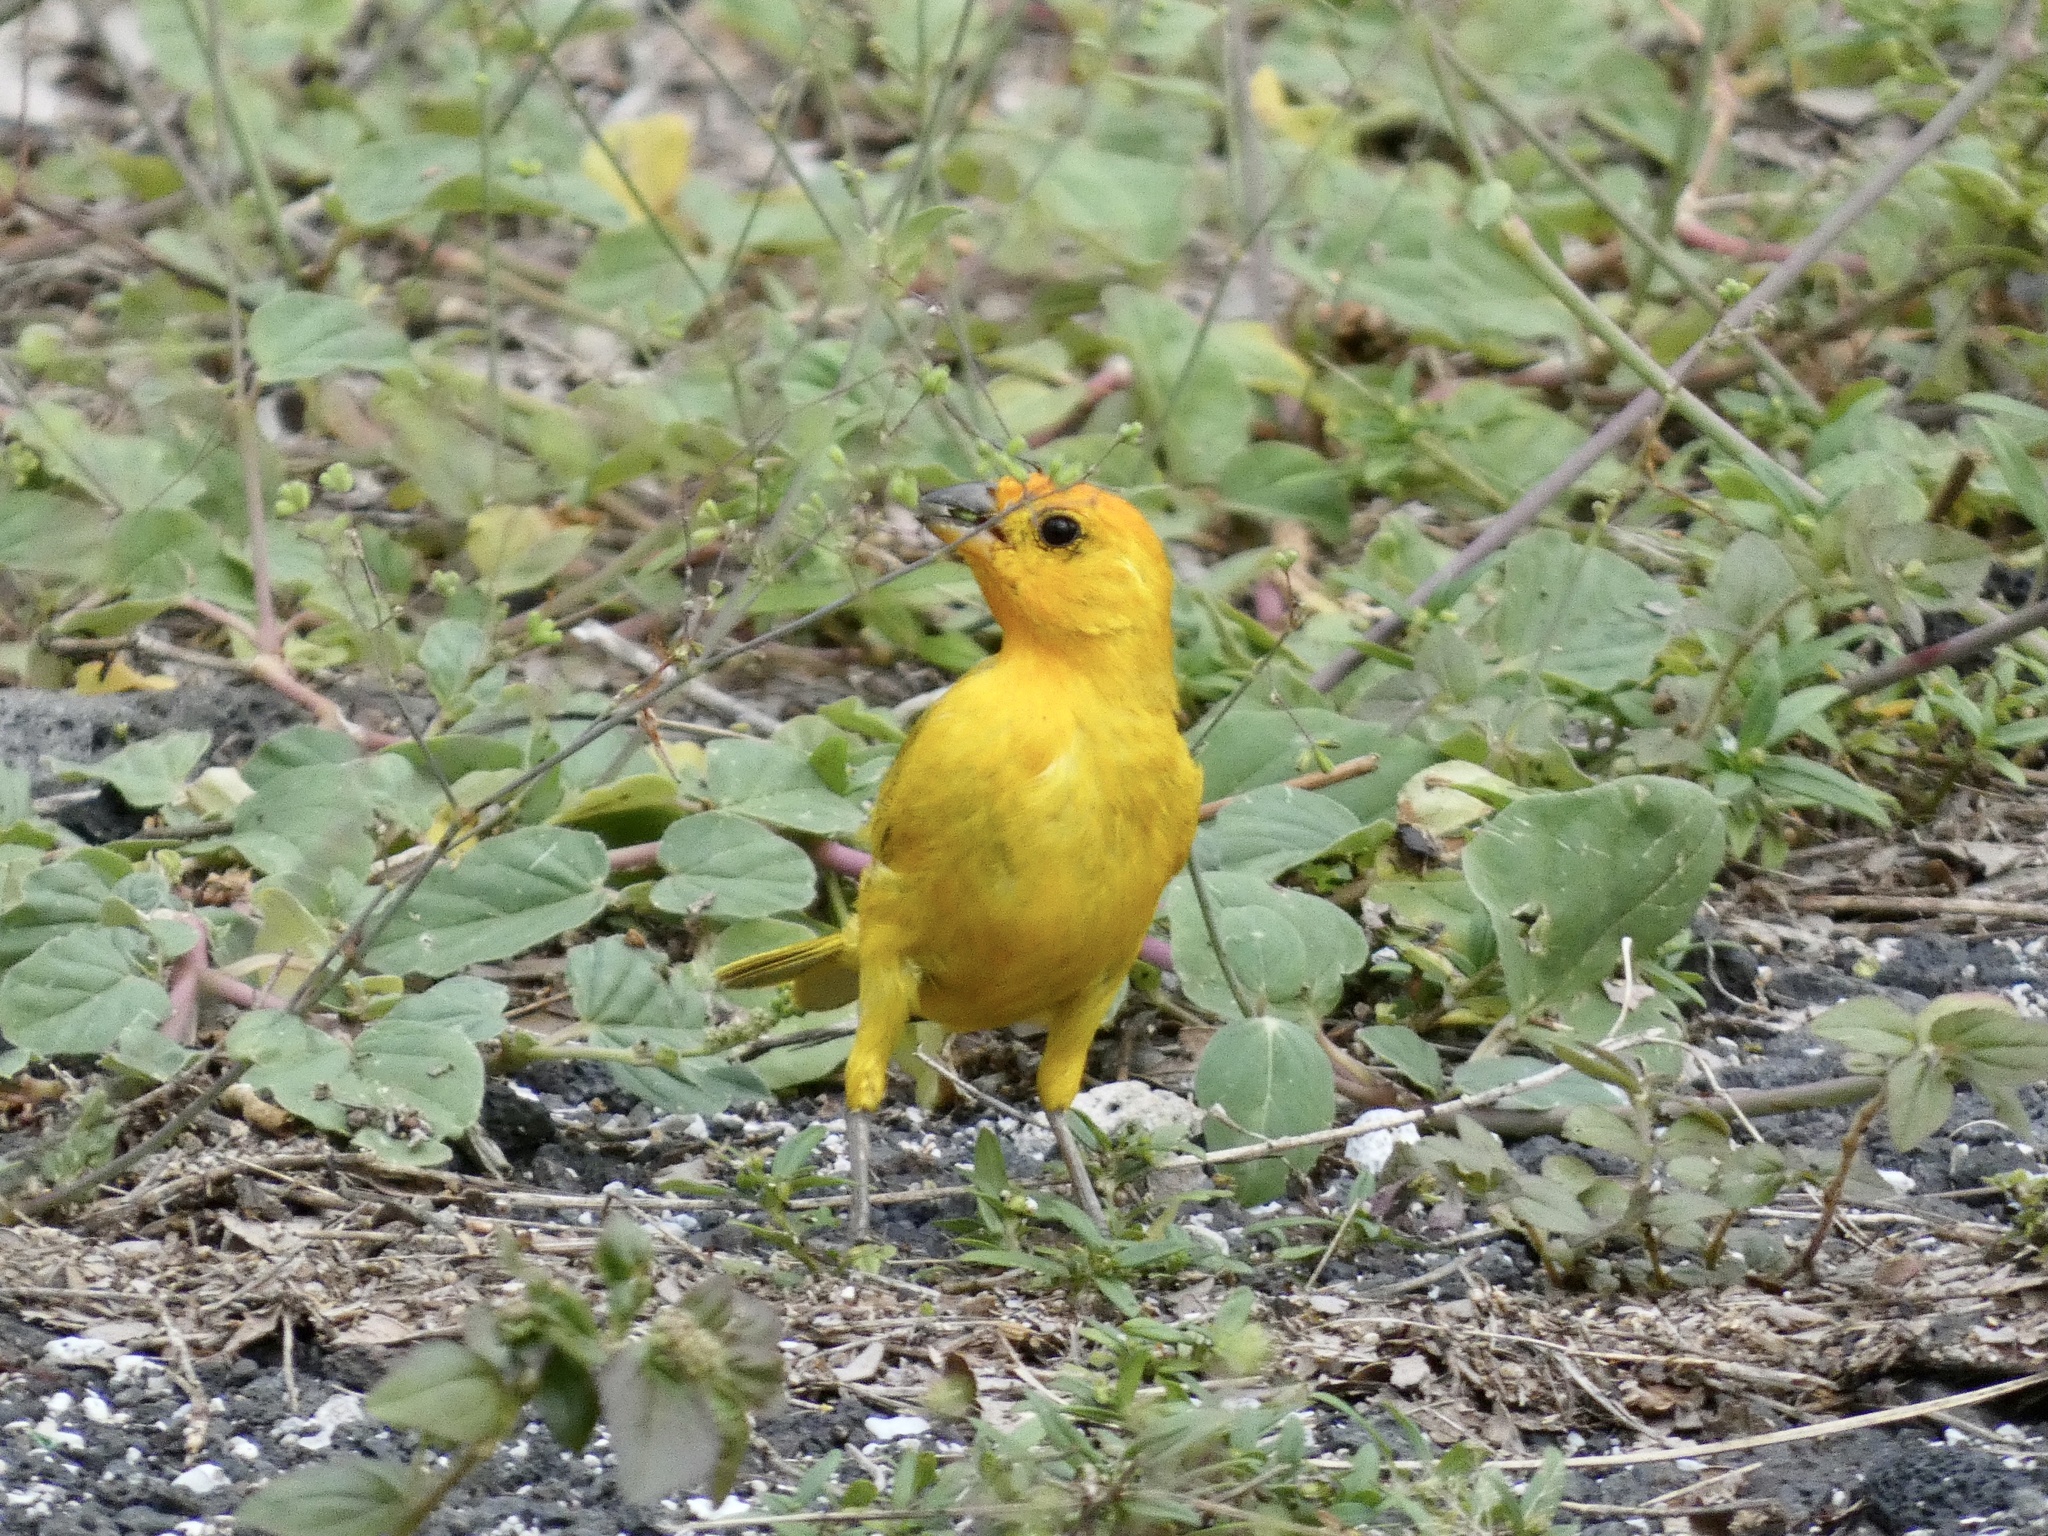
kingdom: Animalia
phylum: Chordata
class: Aves
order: Passeriformes
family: Thraupidae
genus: Sicalis
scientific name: Sicalis flaveola
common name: Saffron finch
